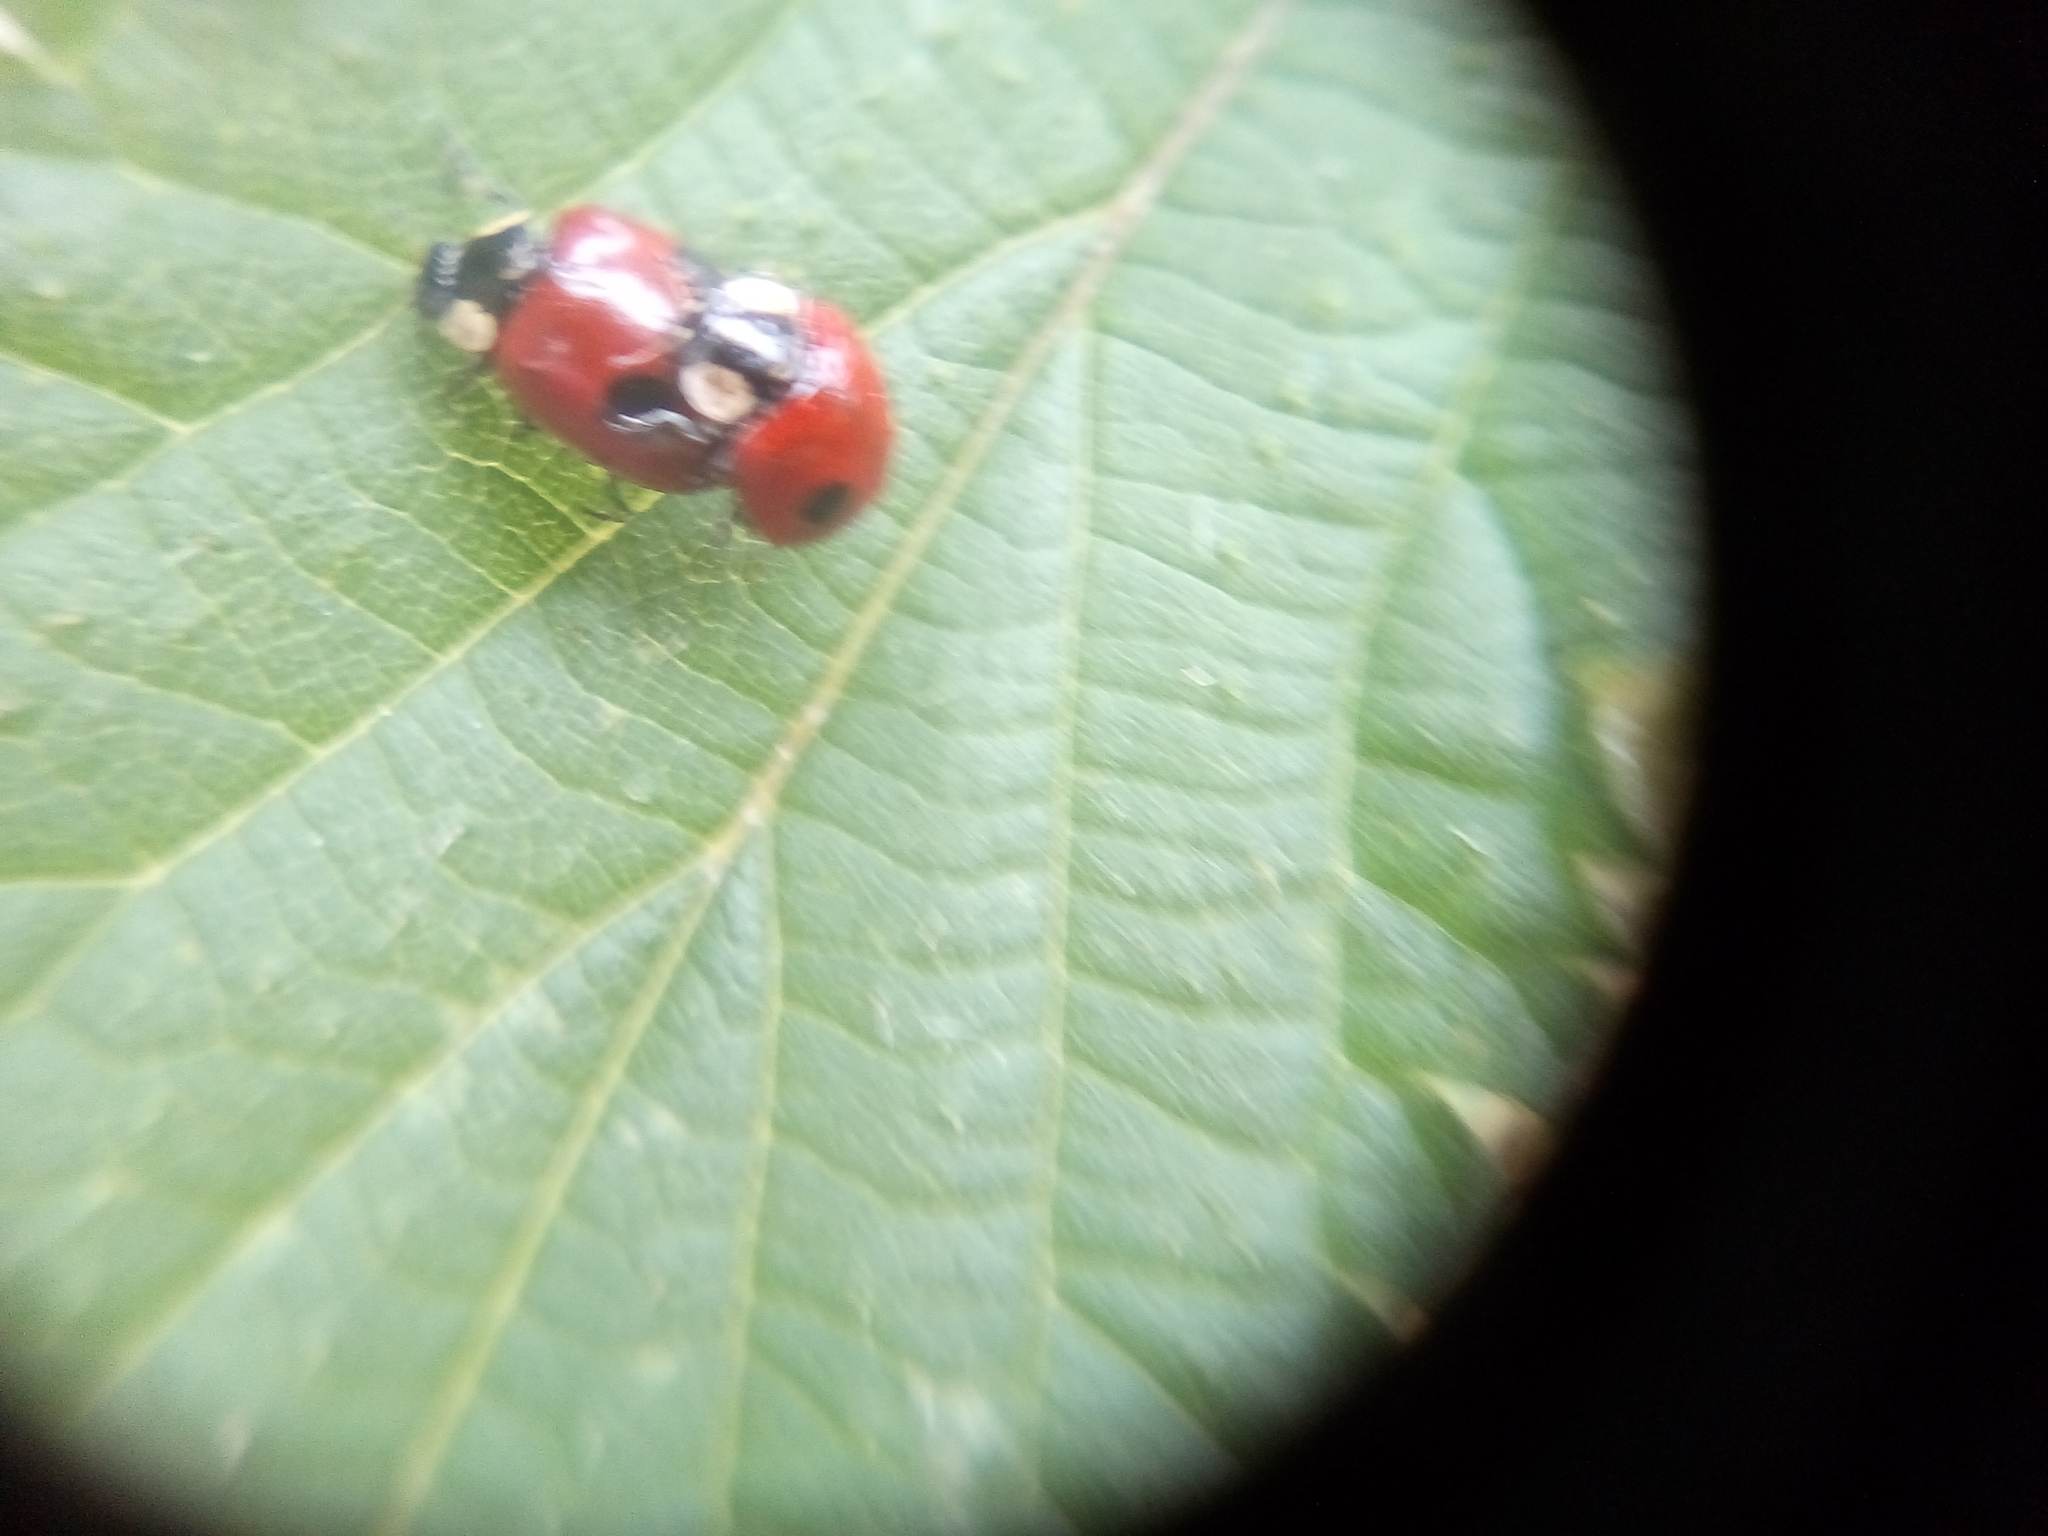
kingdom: Animalia
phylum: Arthropoda
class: Insecta
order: Coleoptera
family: Coccinellidae
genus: Adalia
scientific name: Adalia bipunctata
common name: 2-spot ladybird
